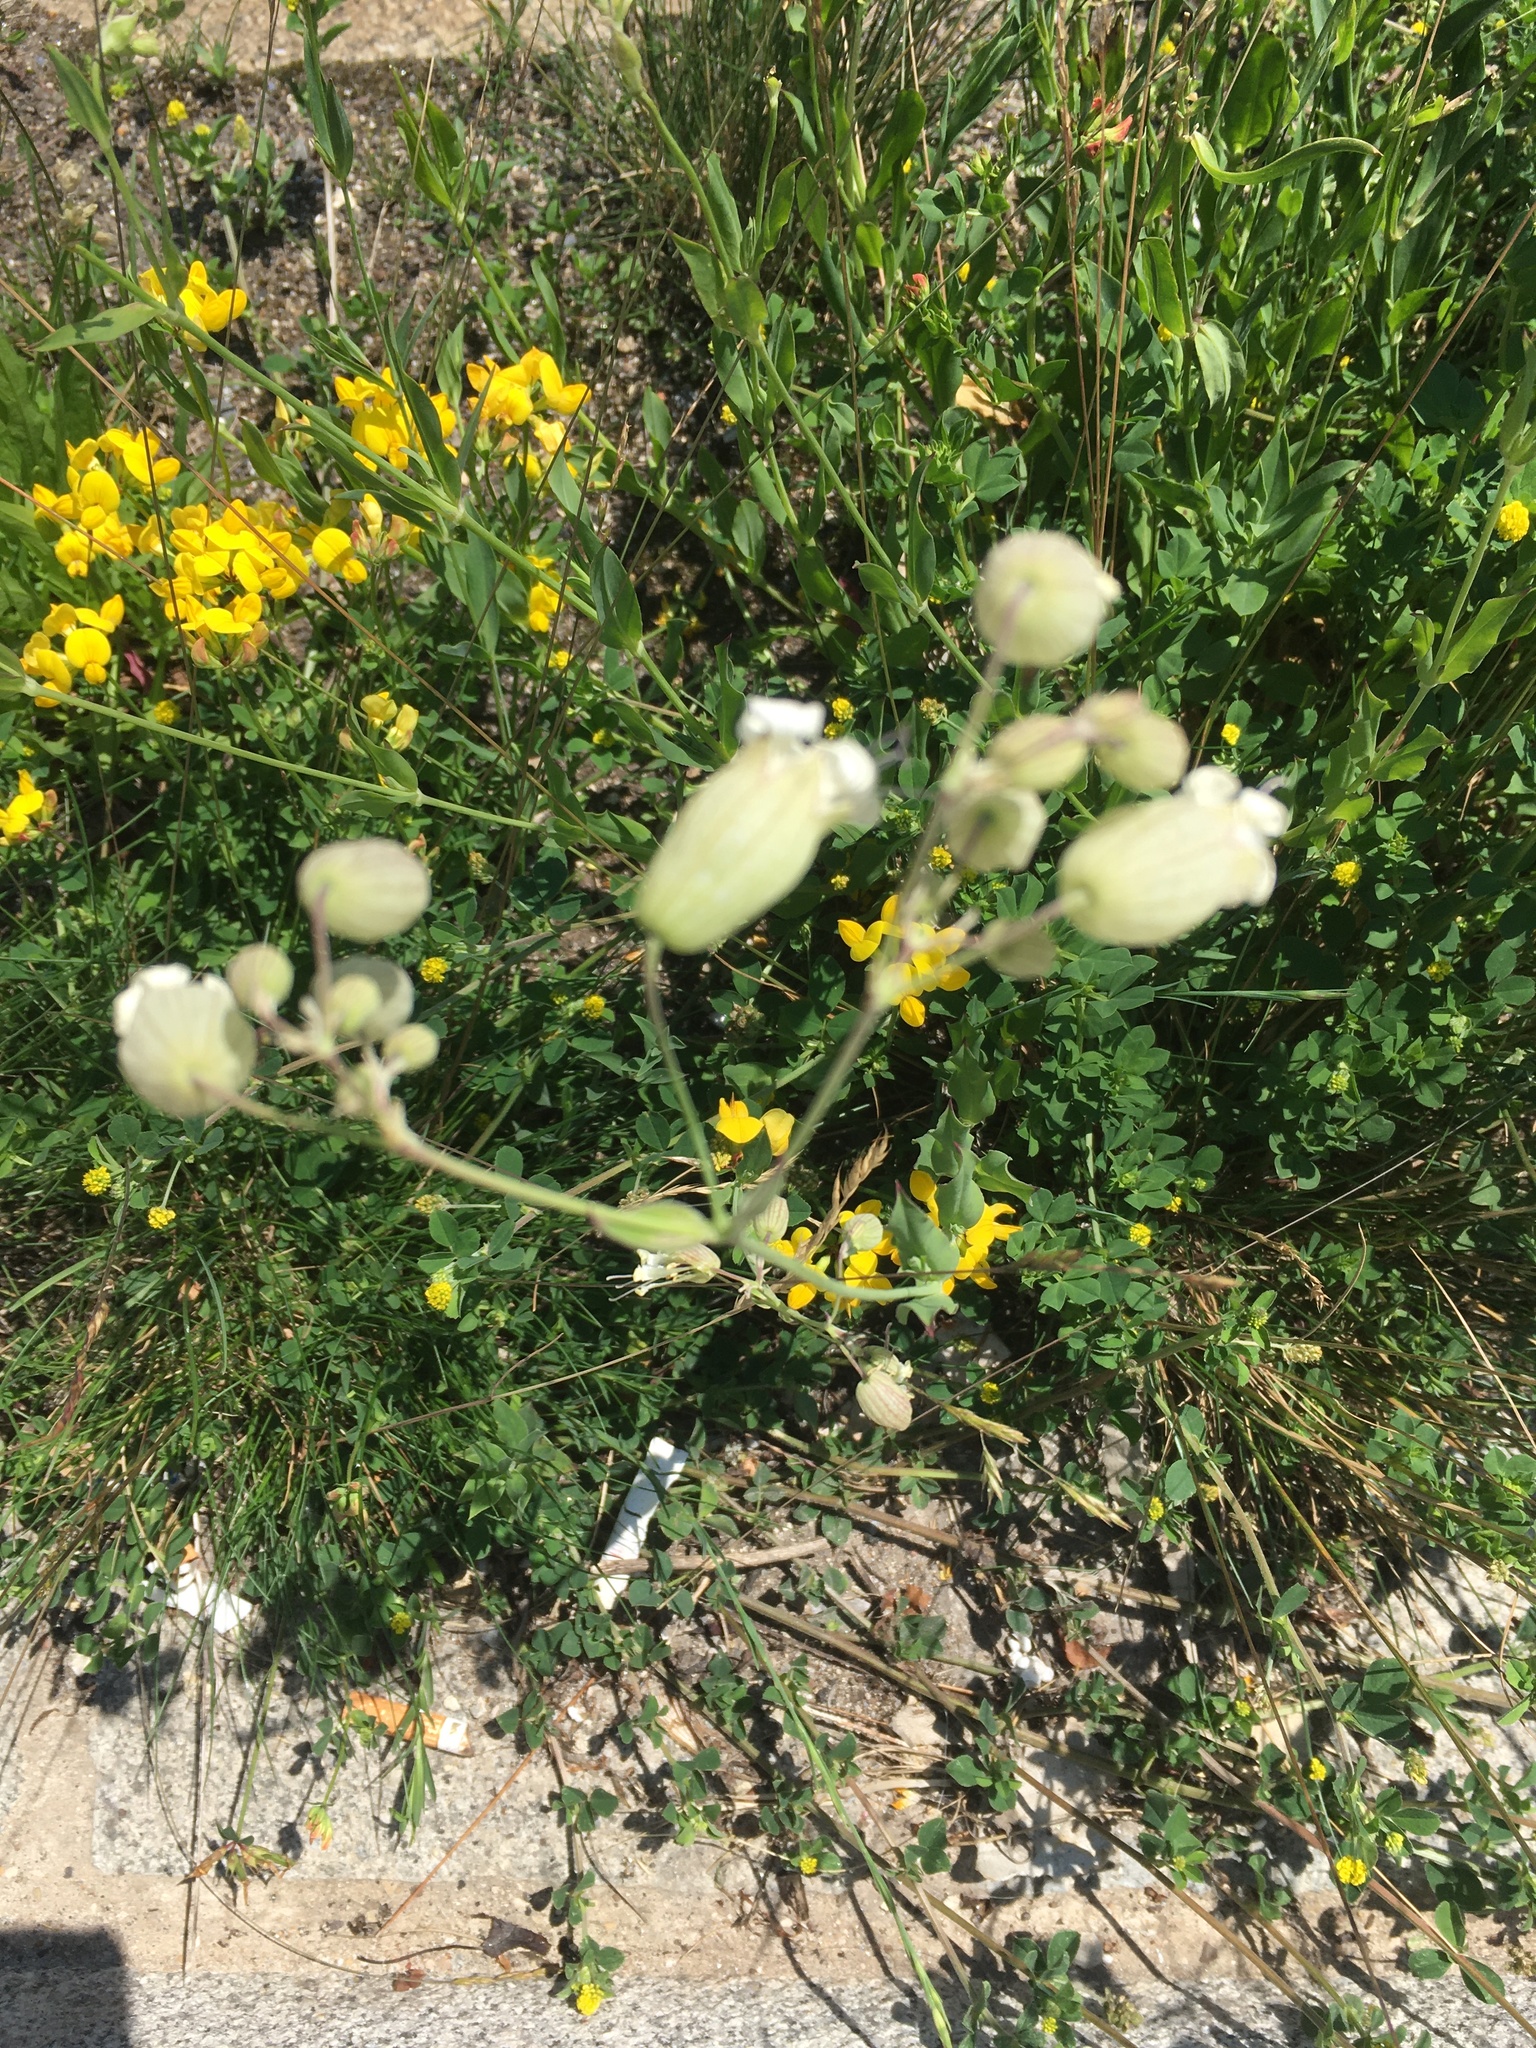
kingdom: Plantae
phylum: Tracheophyta
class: Magnoliopsida
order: Caryophyllales
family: Caryophyllaceae
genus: Silene
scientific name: Silene vulgaris
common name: Bladder campion
